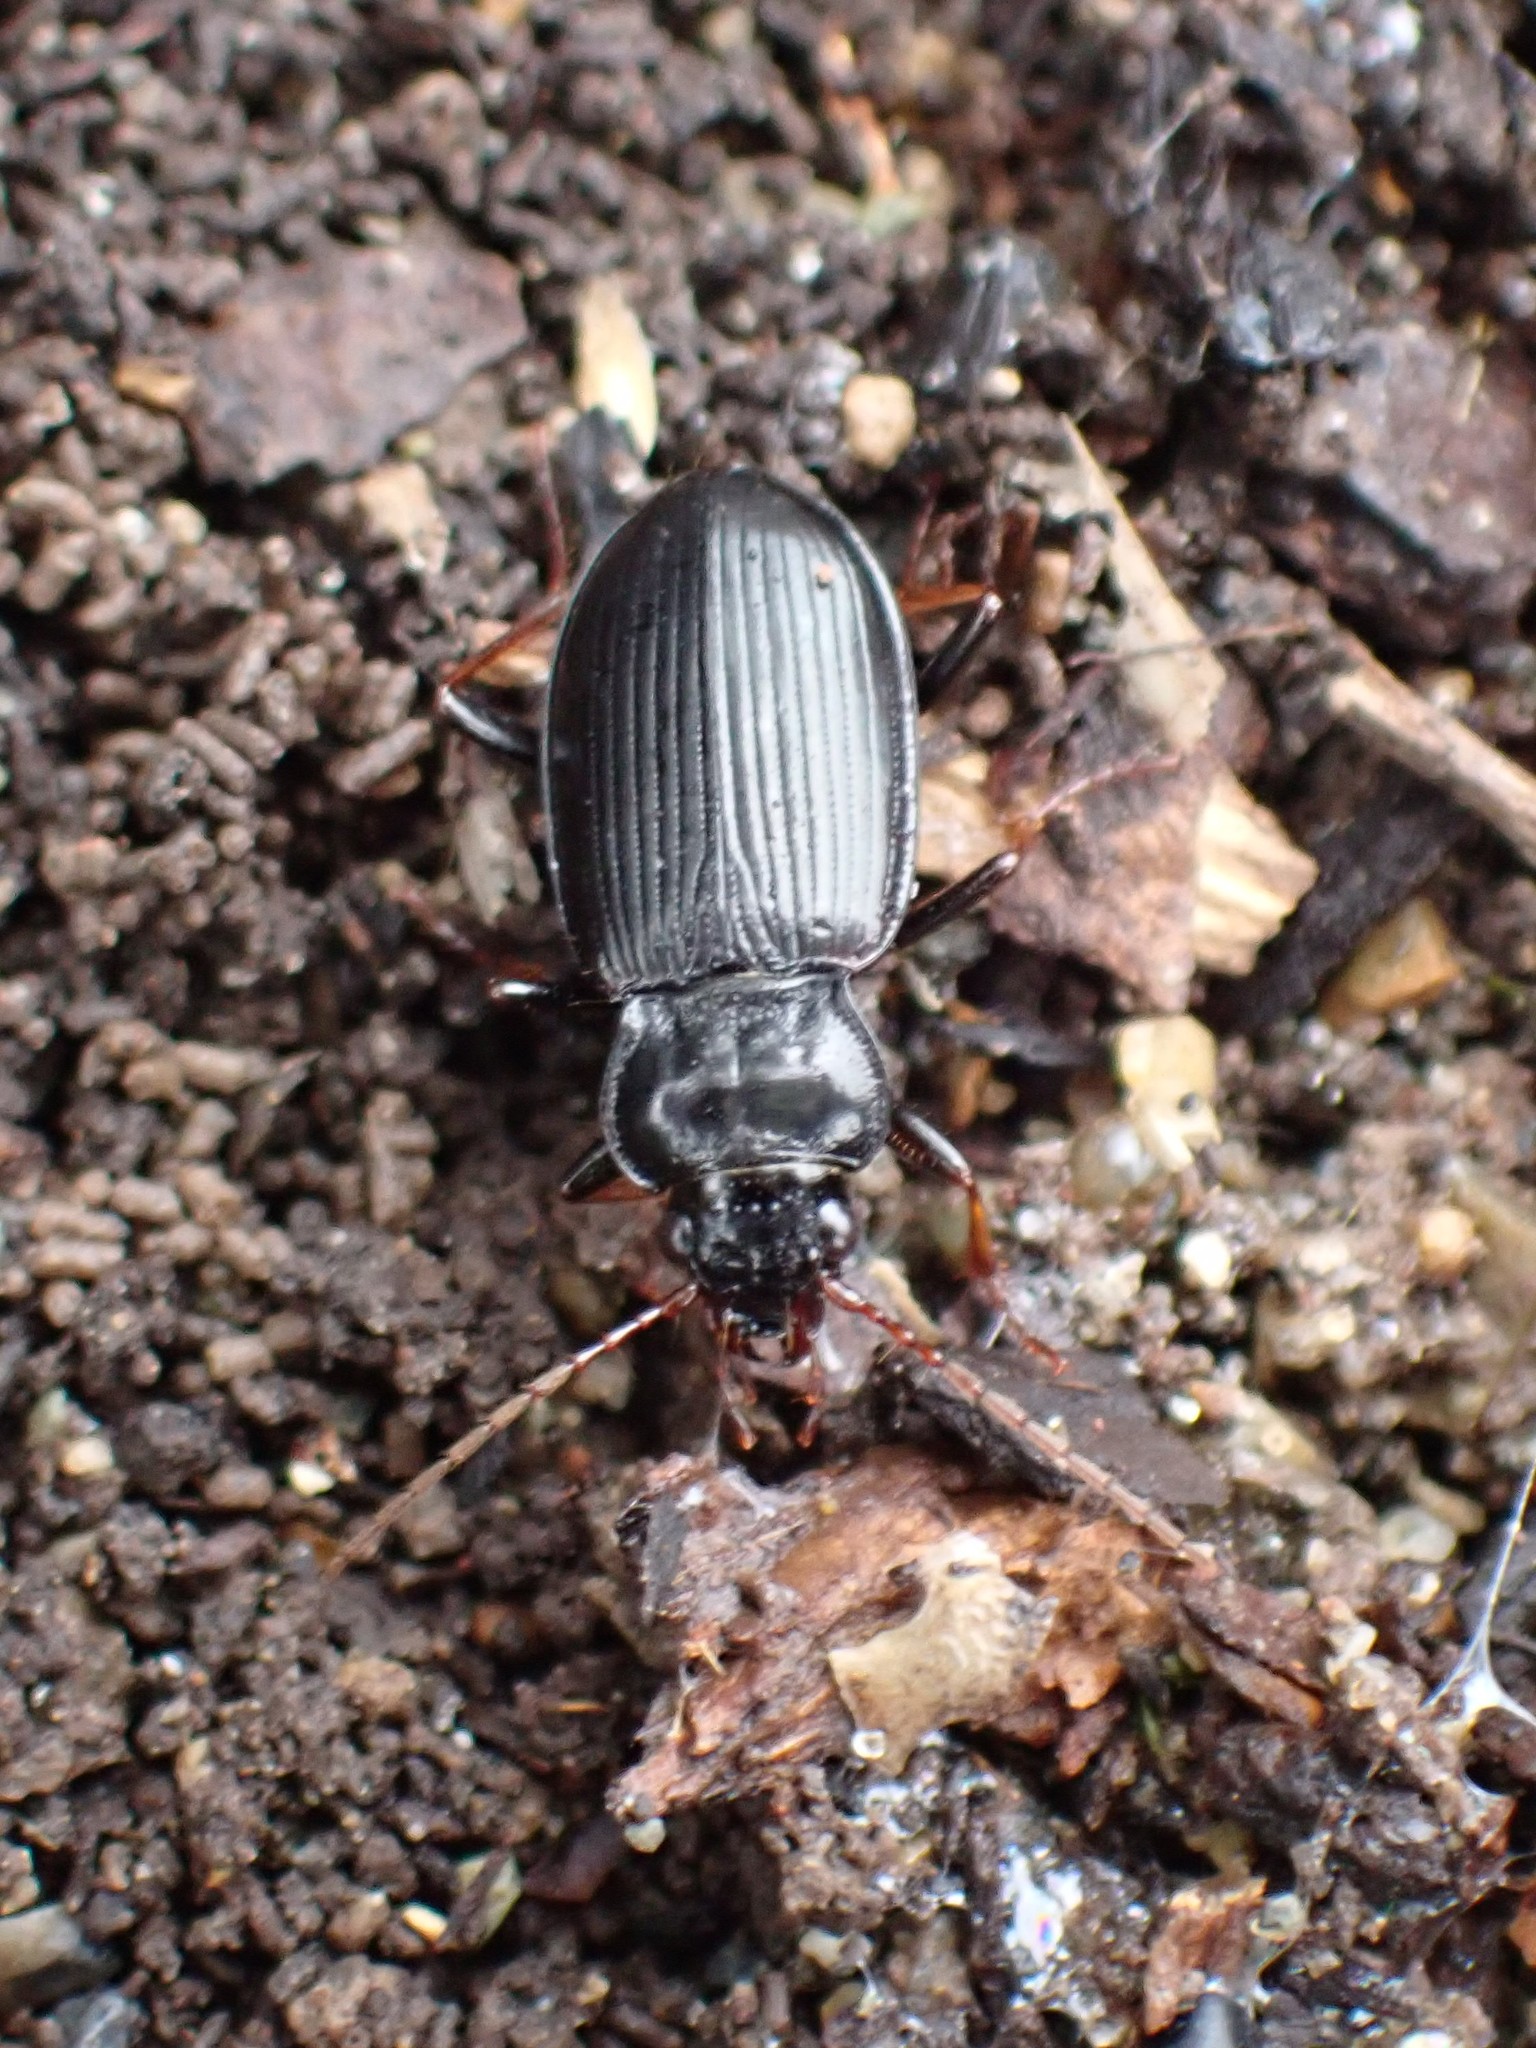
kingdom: Animalia
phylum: Arthropoda
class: Insecta
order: Coleoptera
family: Carabidae
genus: Nebria
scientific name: Nebria brevicollis
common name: Short-necked gazelle beetle
